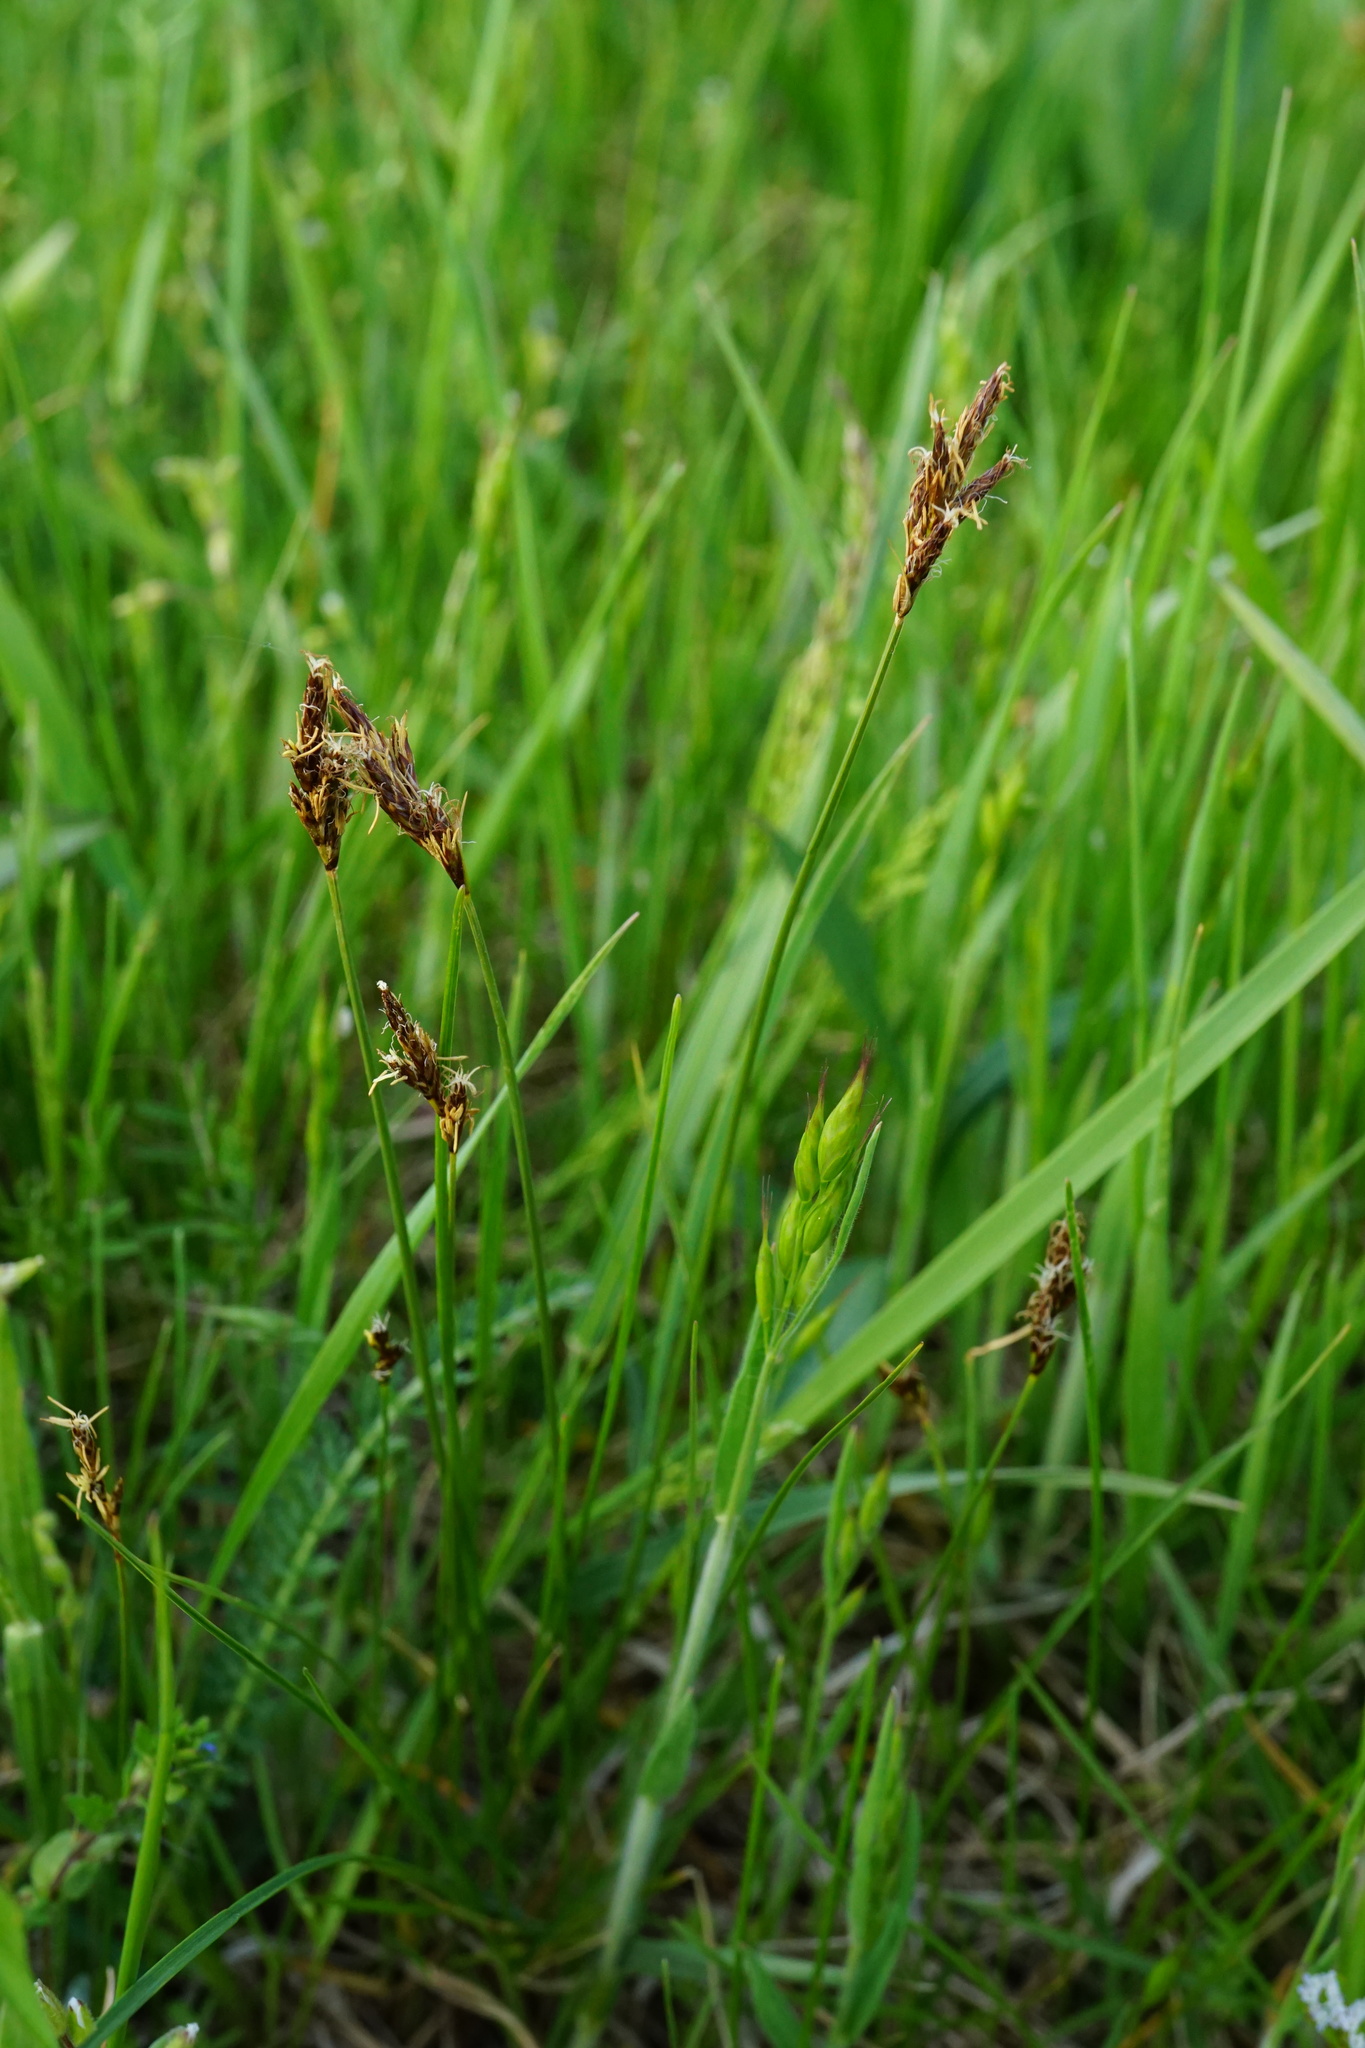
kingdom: Plantae
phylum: Tracheophyta
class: Liliopsida
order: Poales
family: Cyperaceae
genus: Carex
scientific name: Carex praecox
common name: Early sedge
